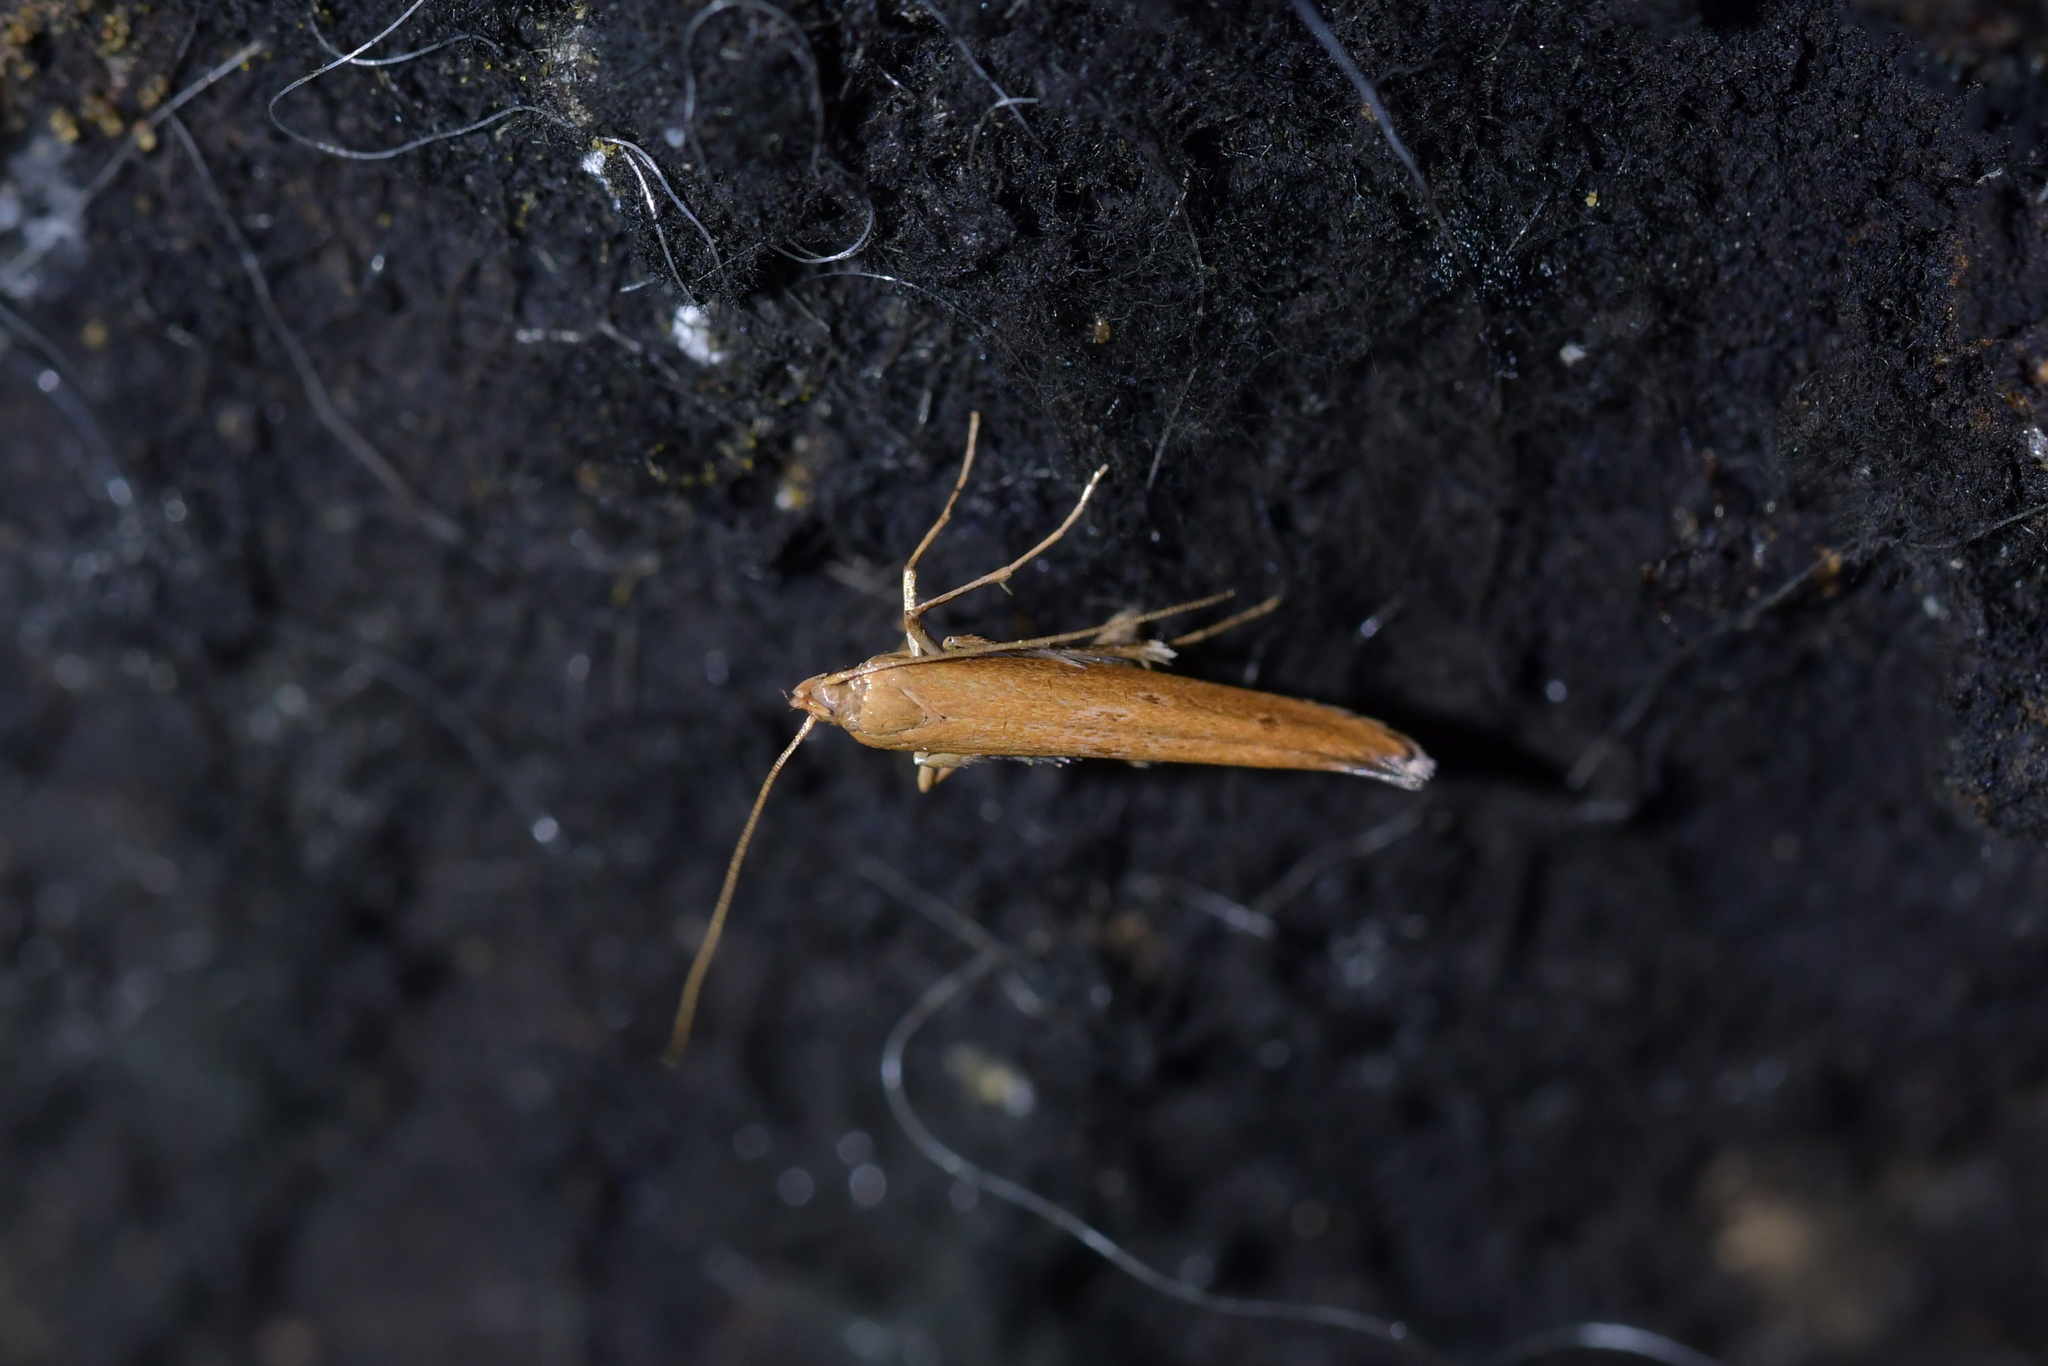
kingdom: Animalia
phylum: Arthropoda
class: Insecta
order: Lepidoptera
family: Batrachedridae
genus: Batrachedra
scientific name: Batrachedra agaura
